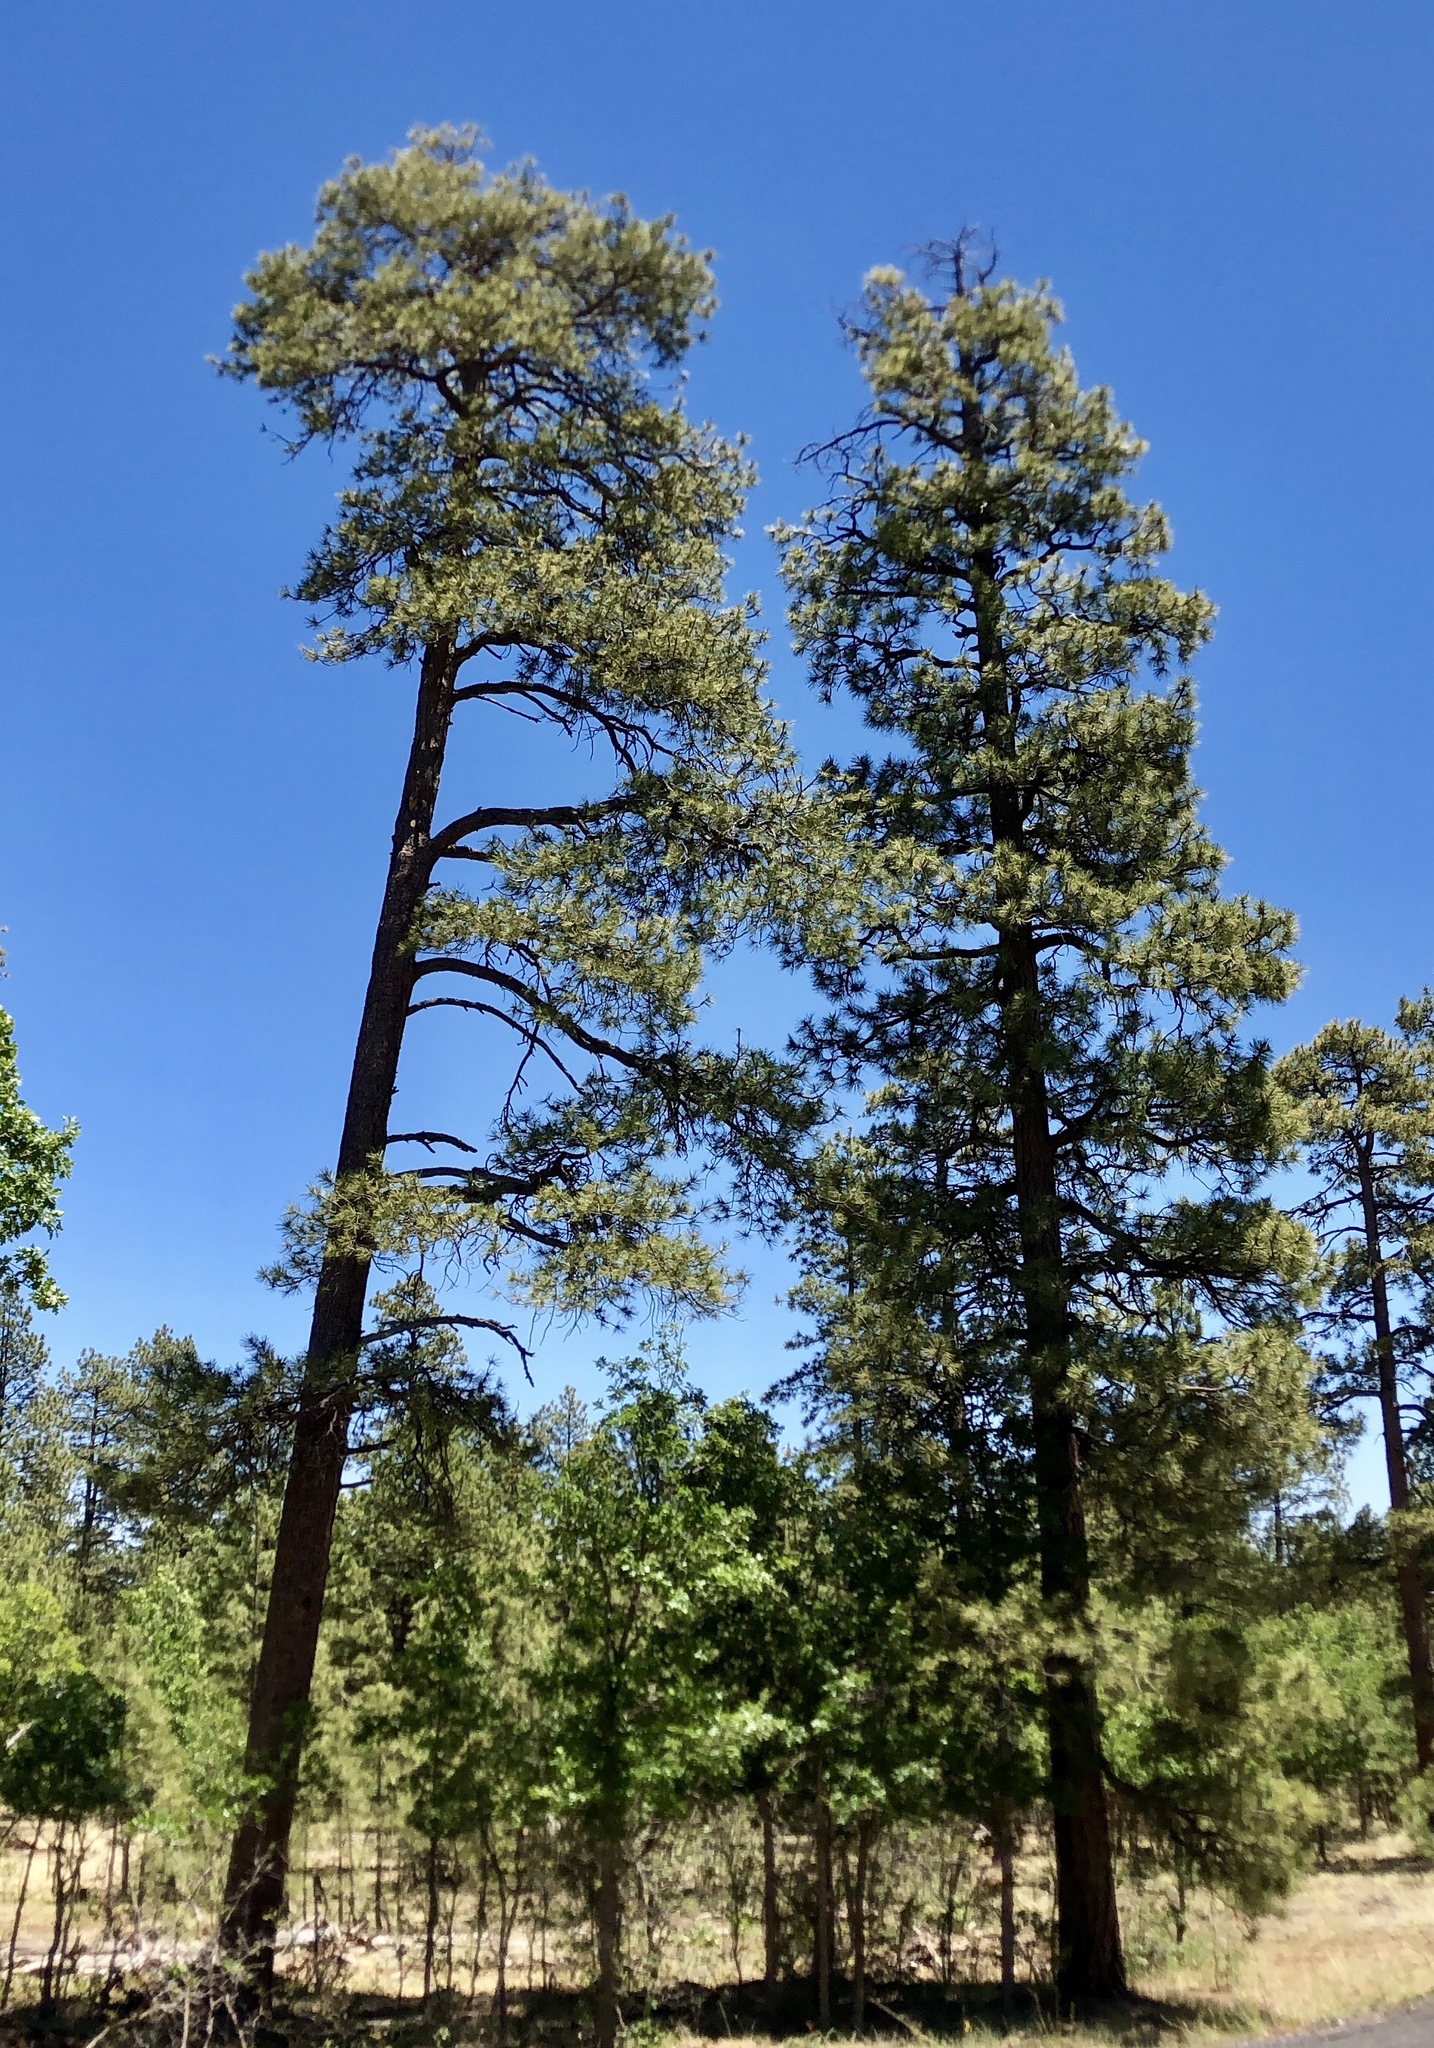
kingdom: Plantae
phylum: Tracheophyta
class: Pinopsida
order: Pinales
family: Pinaceae
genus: Pinus
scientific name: Pinus ponderosa
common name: Western yellow-pine
